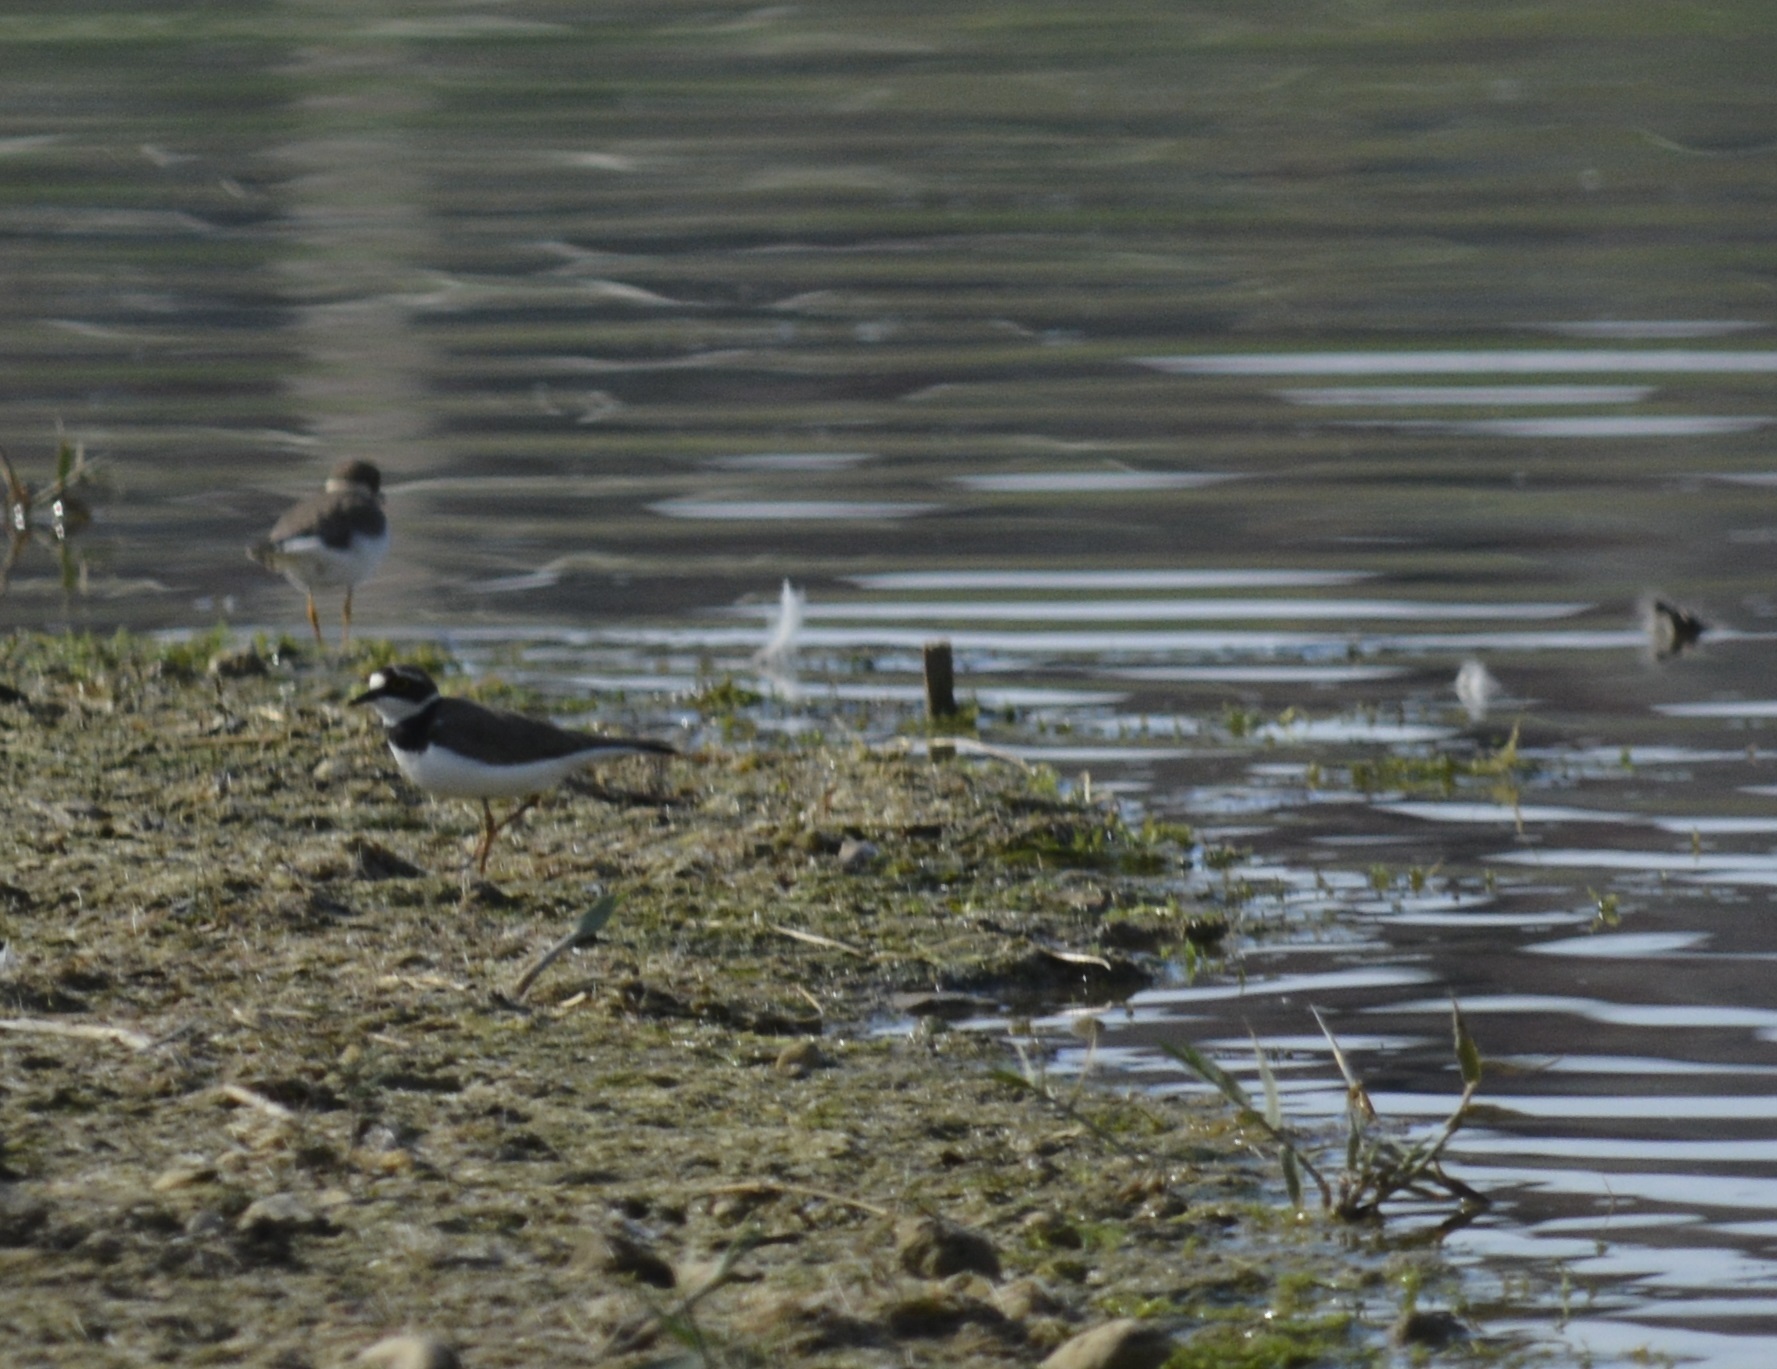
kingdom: Animalia
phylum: Chordata
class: Aves
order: Charadriiformes
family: Charadriidae
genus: Charadrius
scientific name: Charadrius dubius
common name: Little ringed plover
